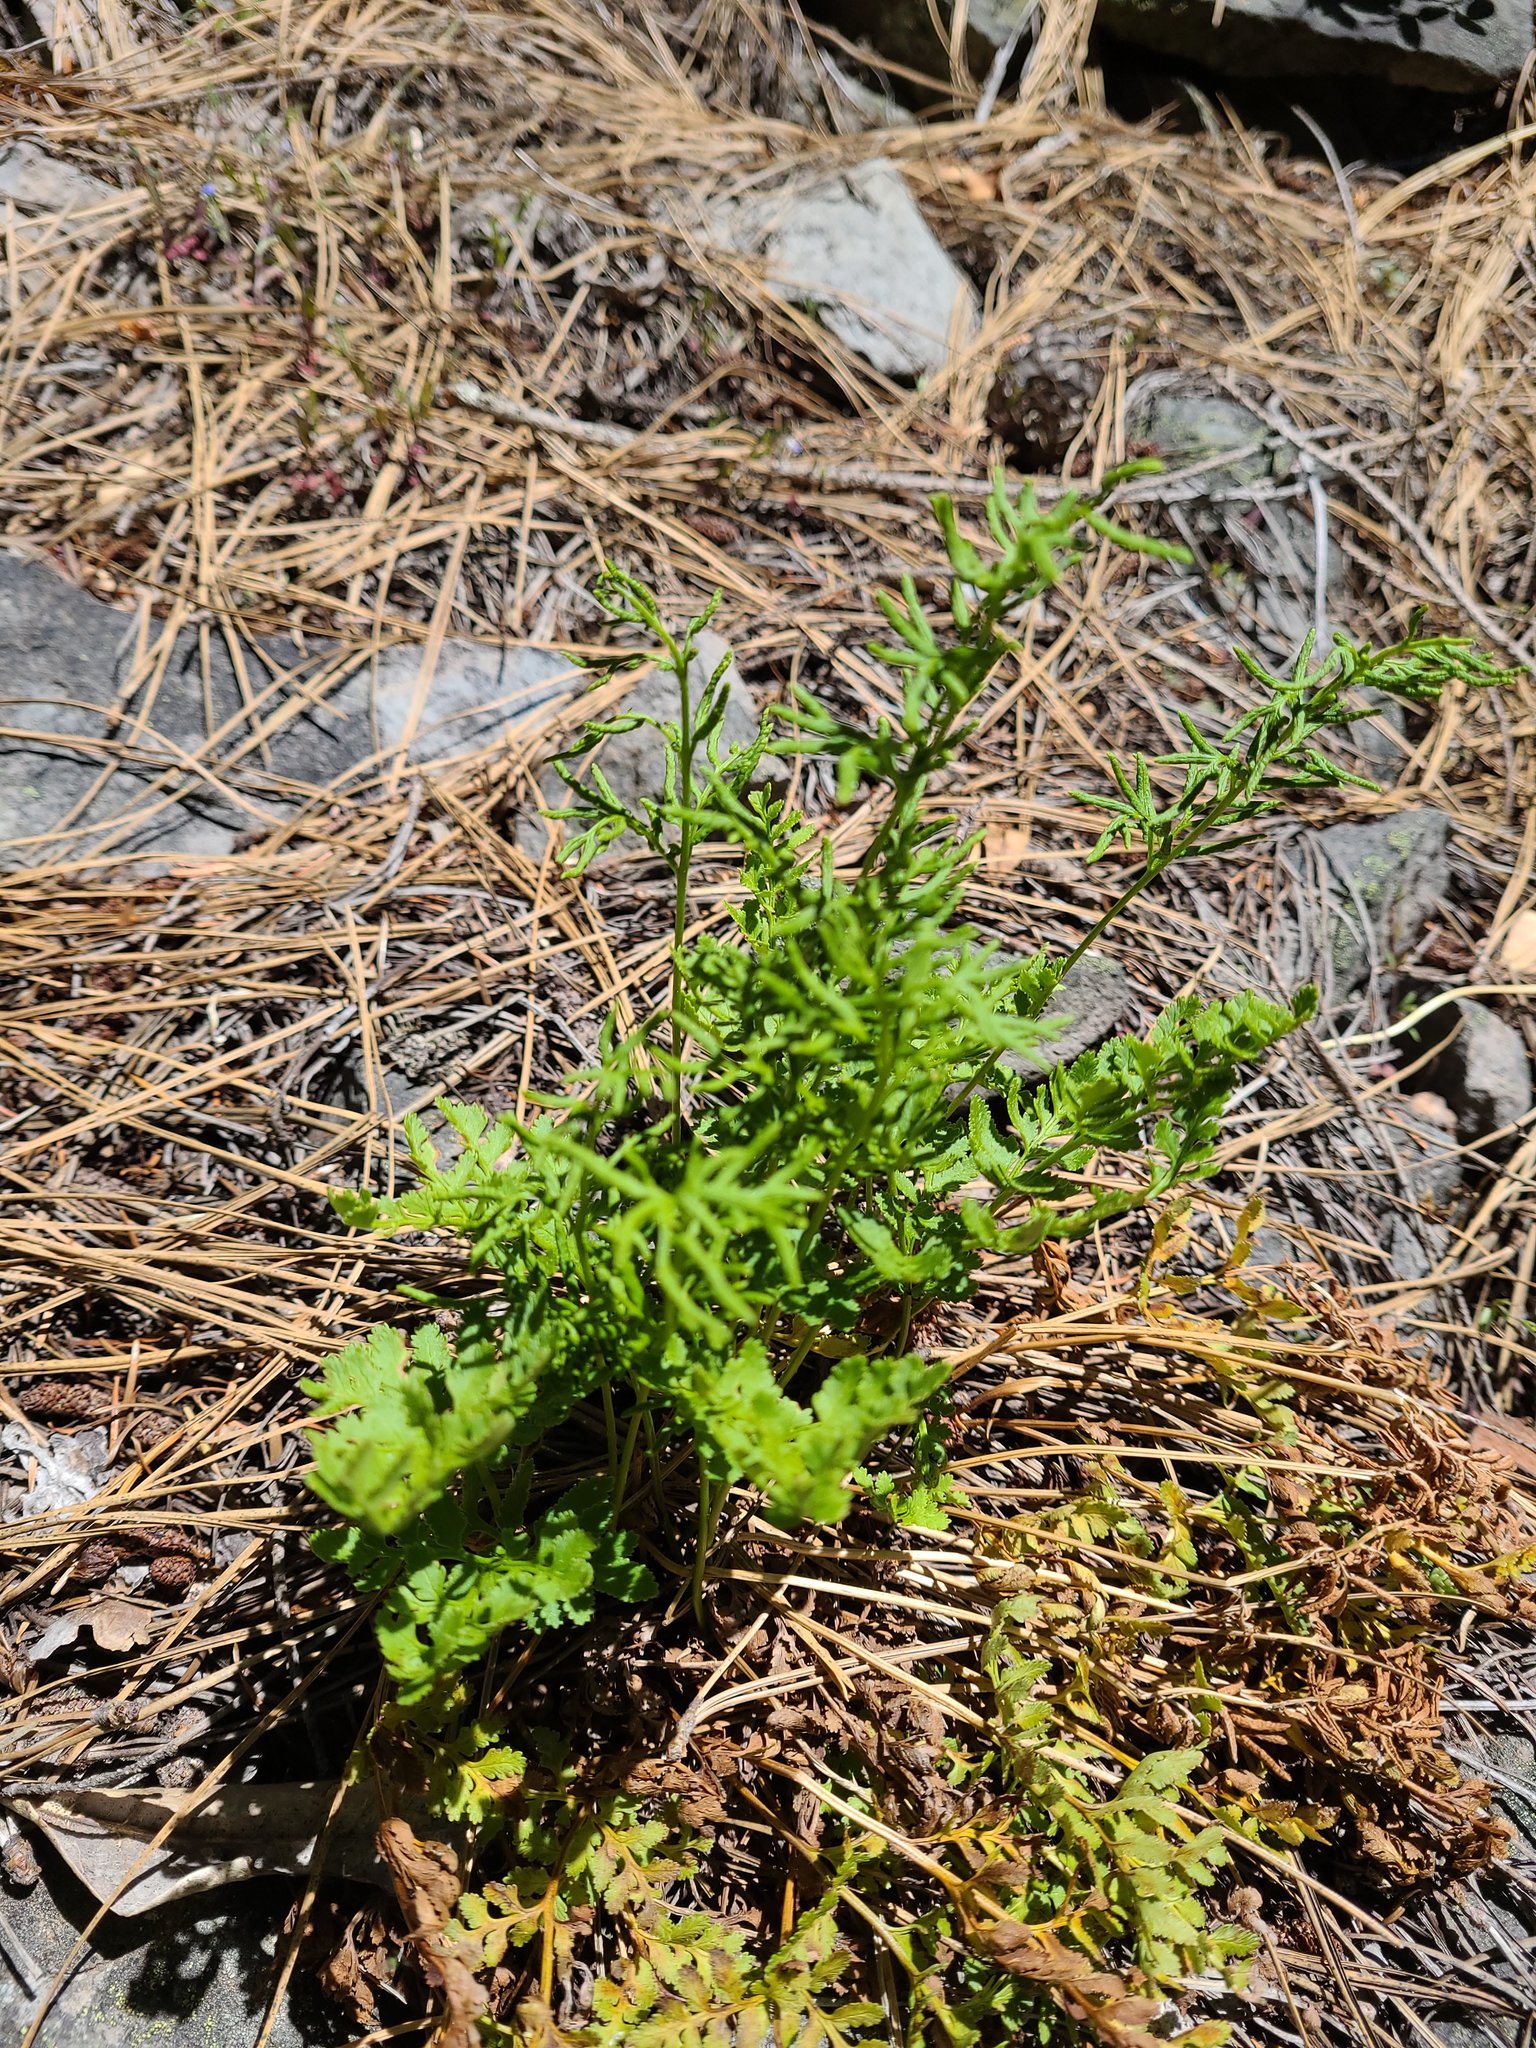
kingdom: Plantae
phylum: Tracheophyta
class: Polypodiopsida
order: Polypodiales
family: Pteridaceae
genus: Cryptogramma
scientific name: Cryptogramma acrostichoides
